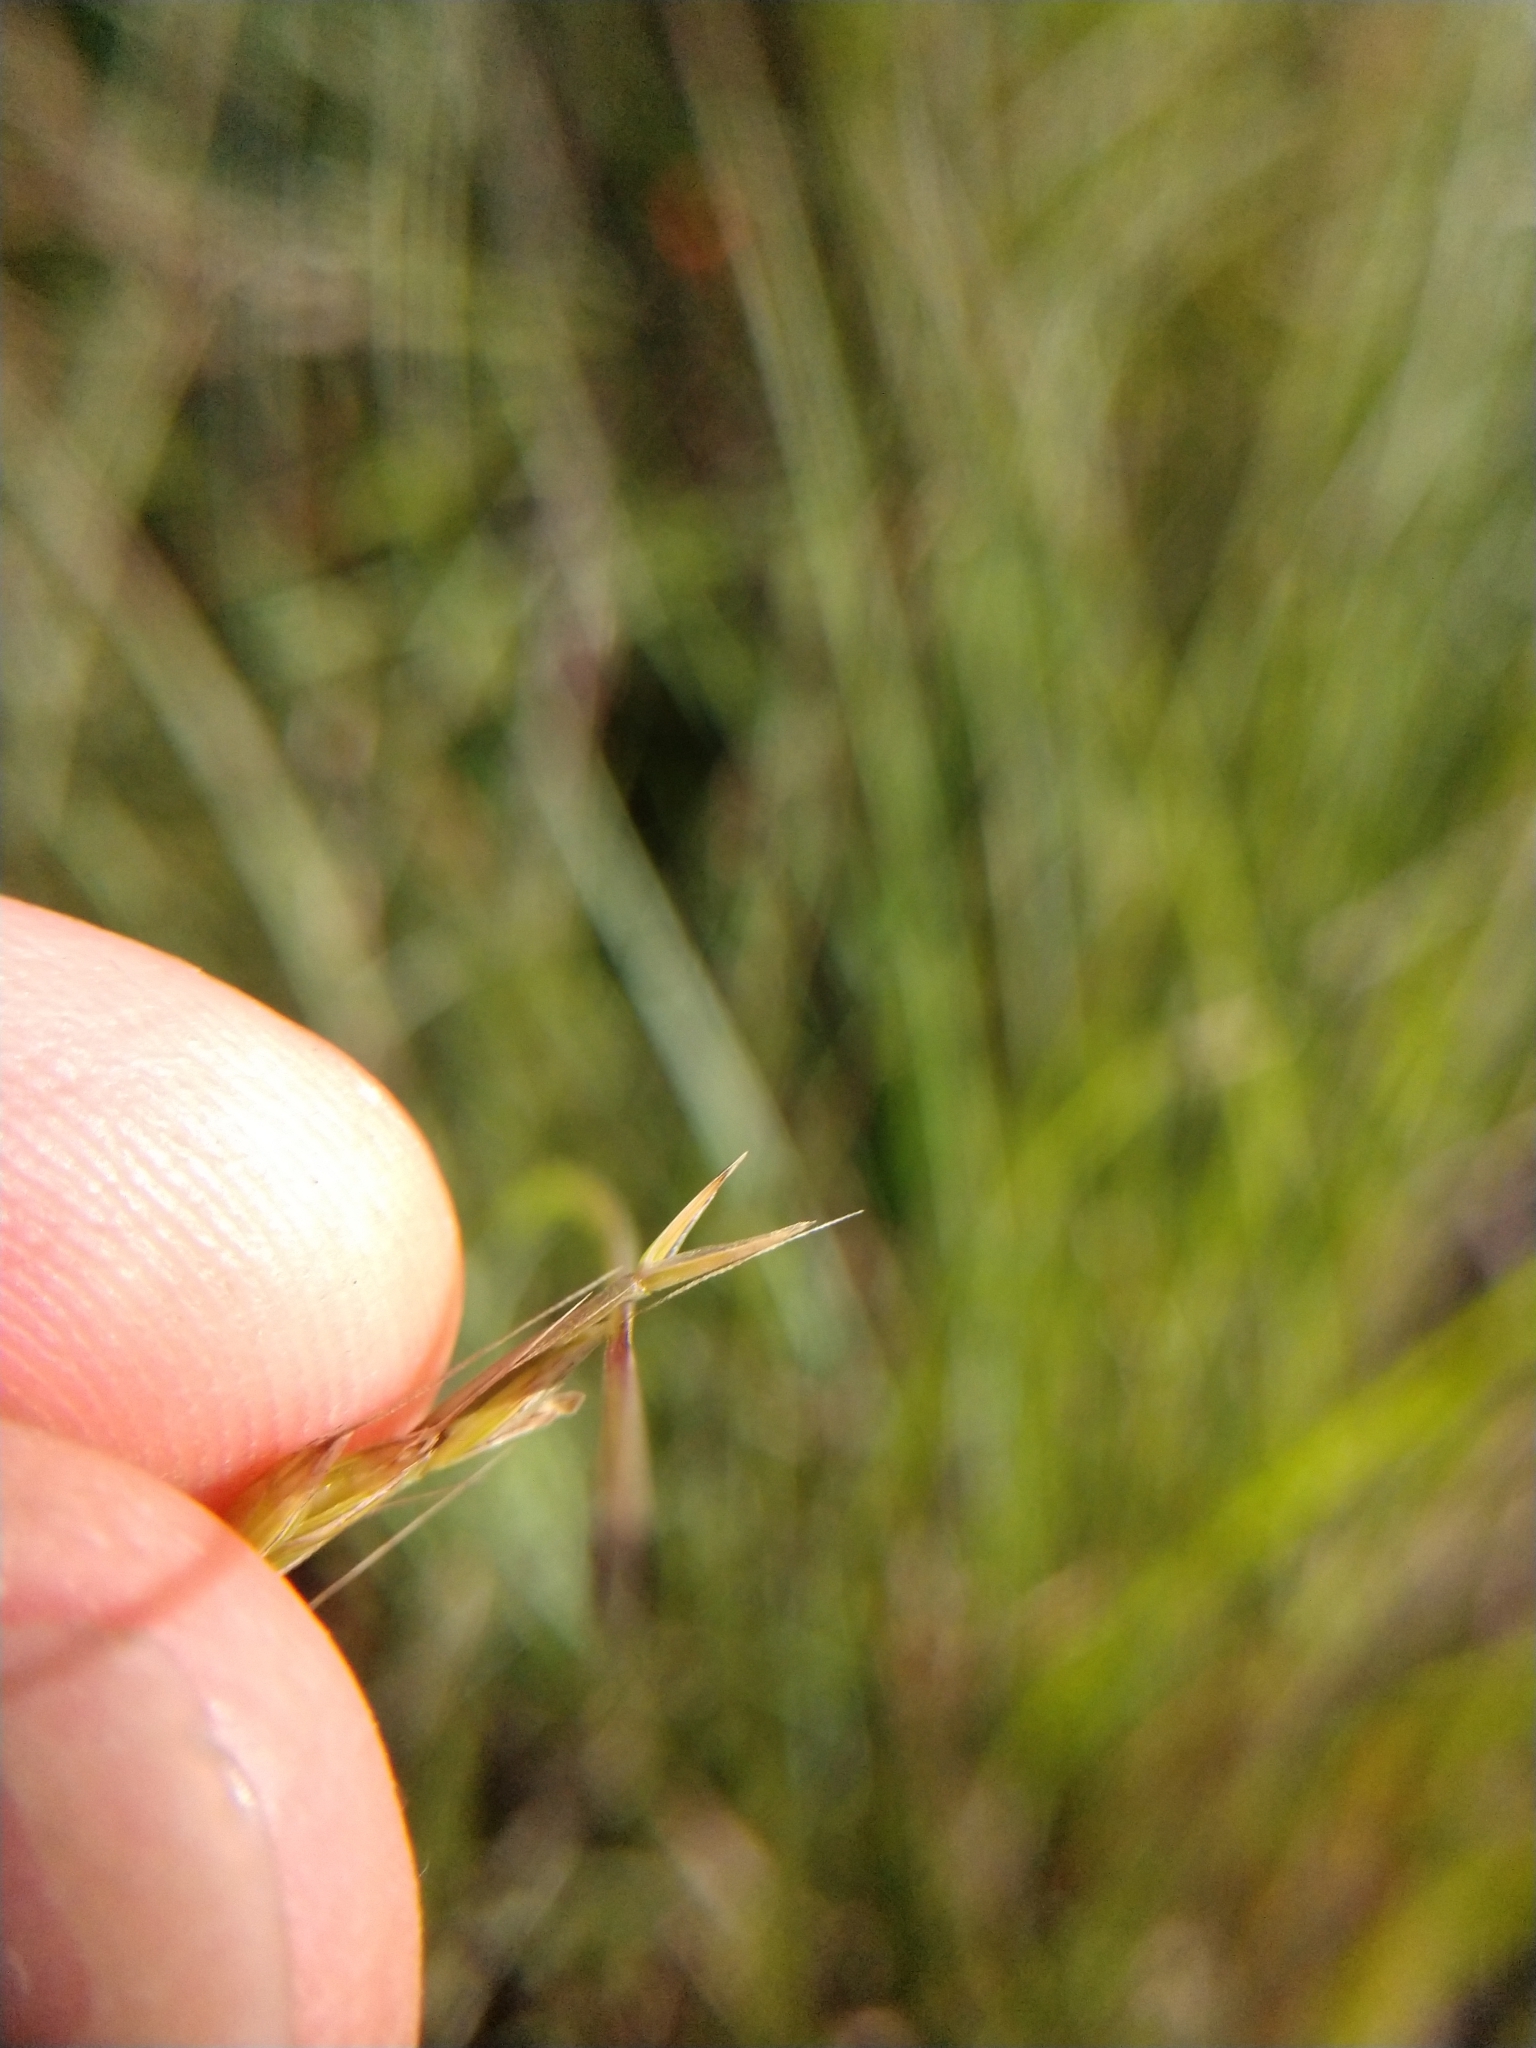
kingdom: Plantae
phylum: Tracheophyta
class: Liliopsida
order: Poales
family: Poaceae
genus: Lolium
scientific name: Lolium temulentum
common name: Darnel
